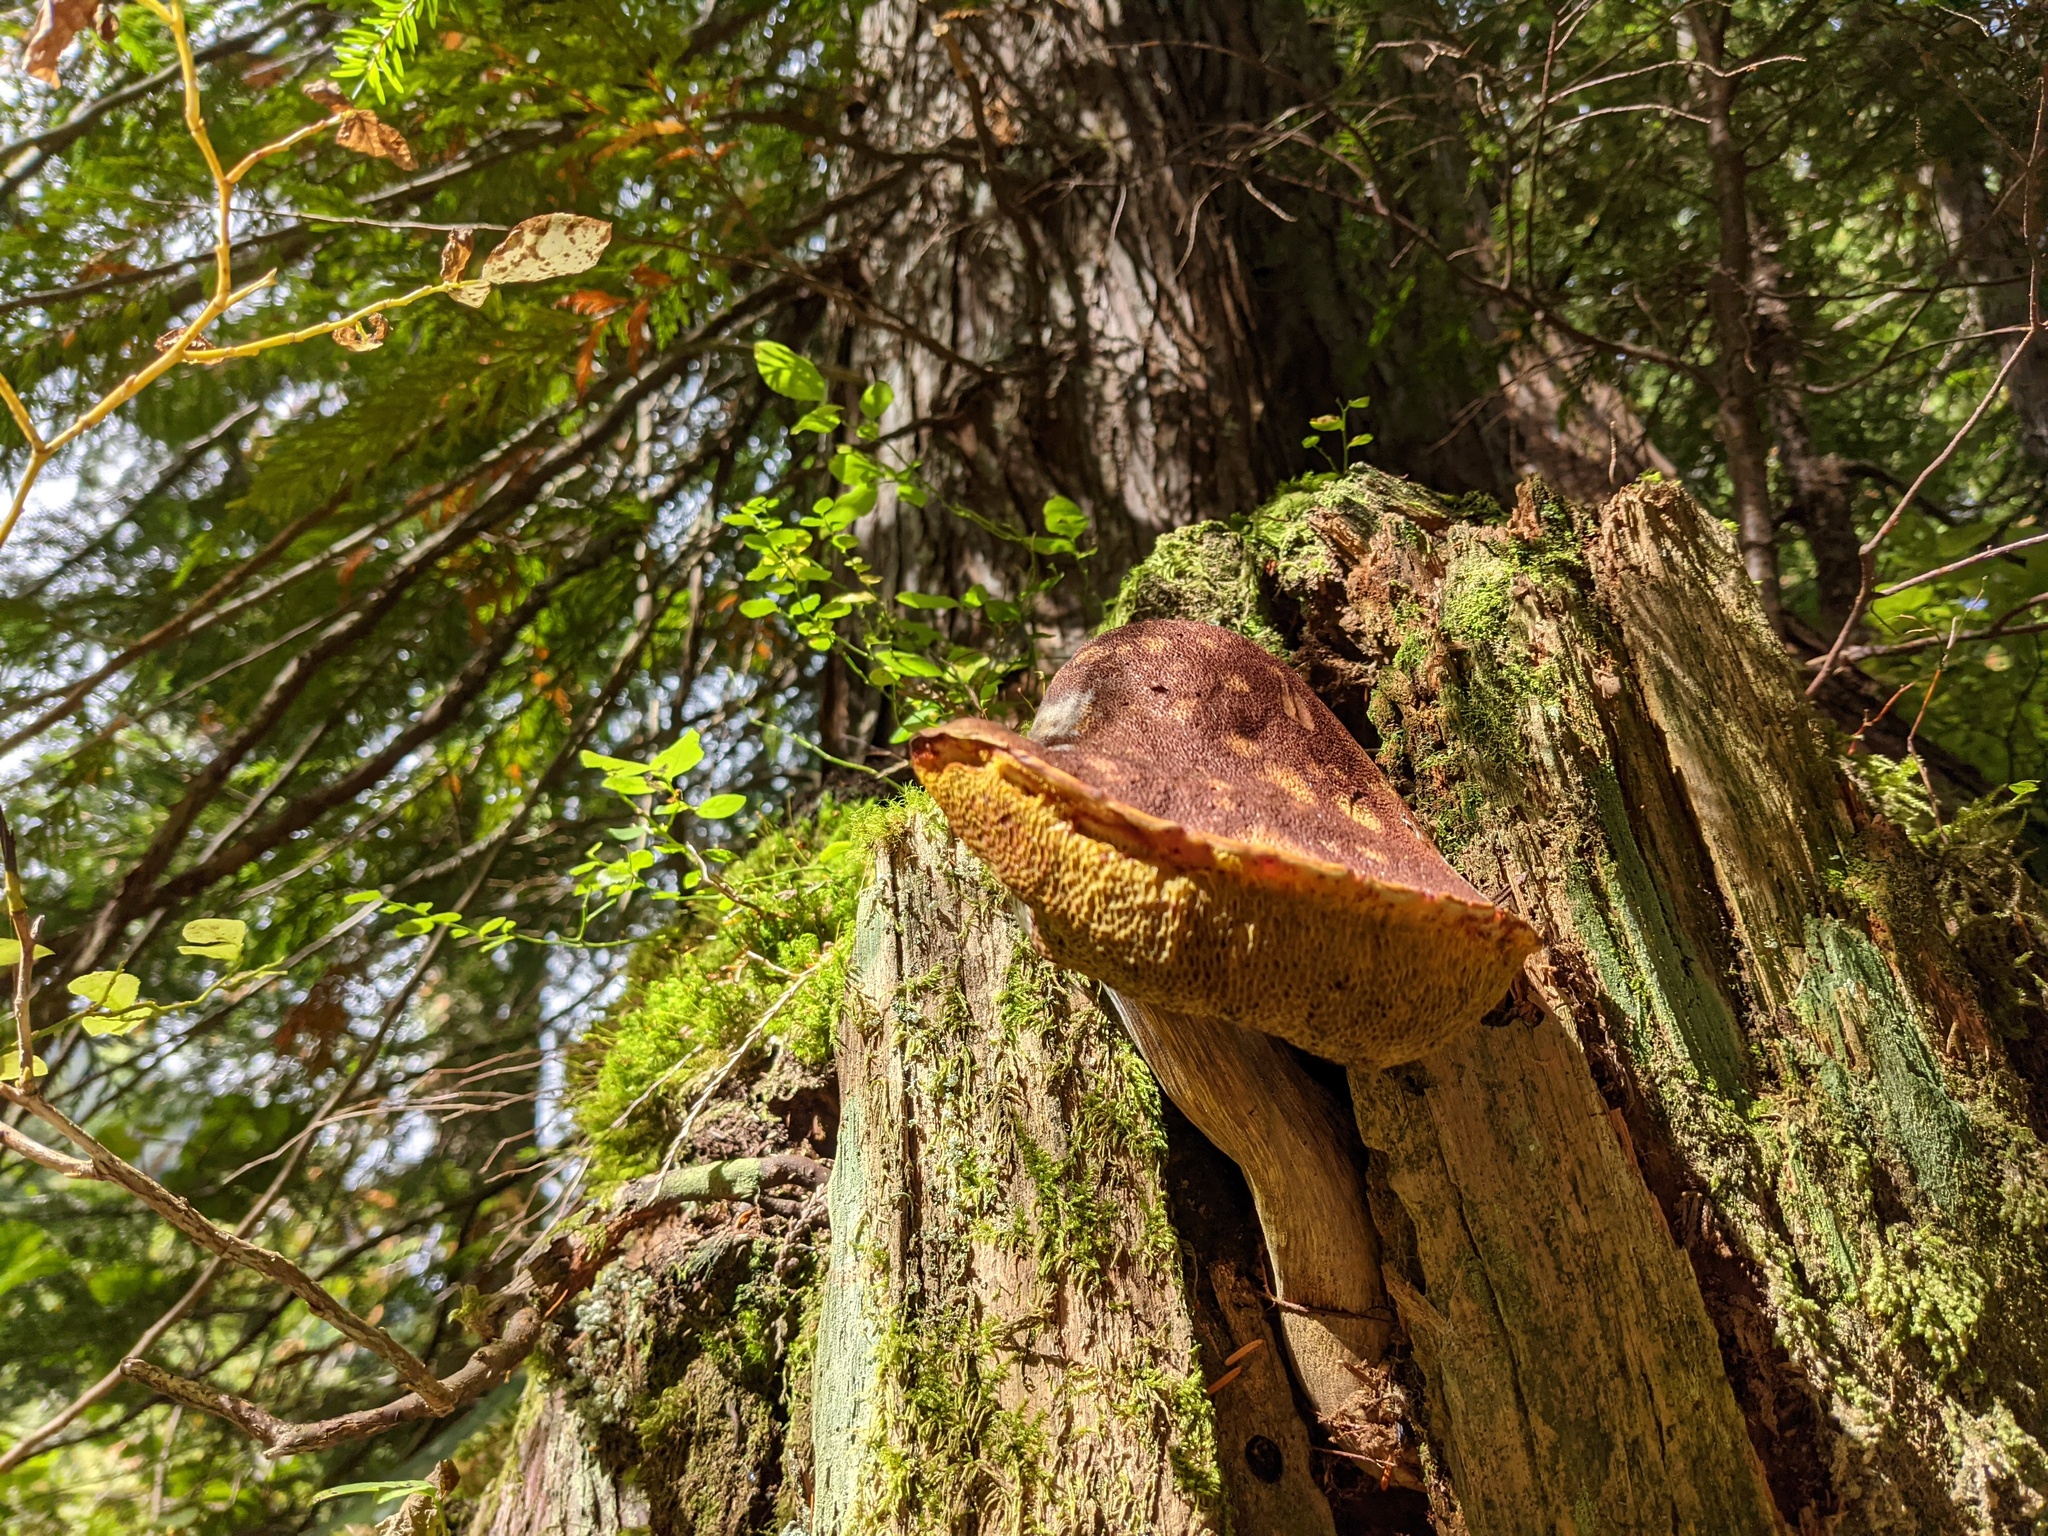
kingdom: Fungi
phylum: Basidiomycota
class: Agaricomycetes
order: Boletales
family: Boletaceae
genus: Aureoboletus
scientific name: Aureoboletus mirabilis
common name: Admirable bolete
